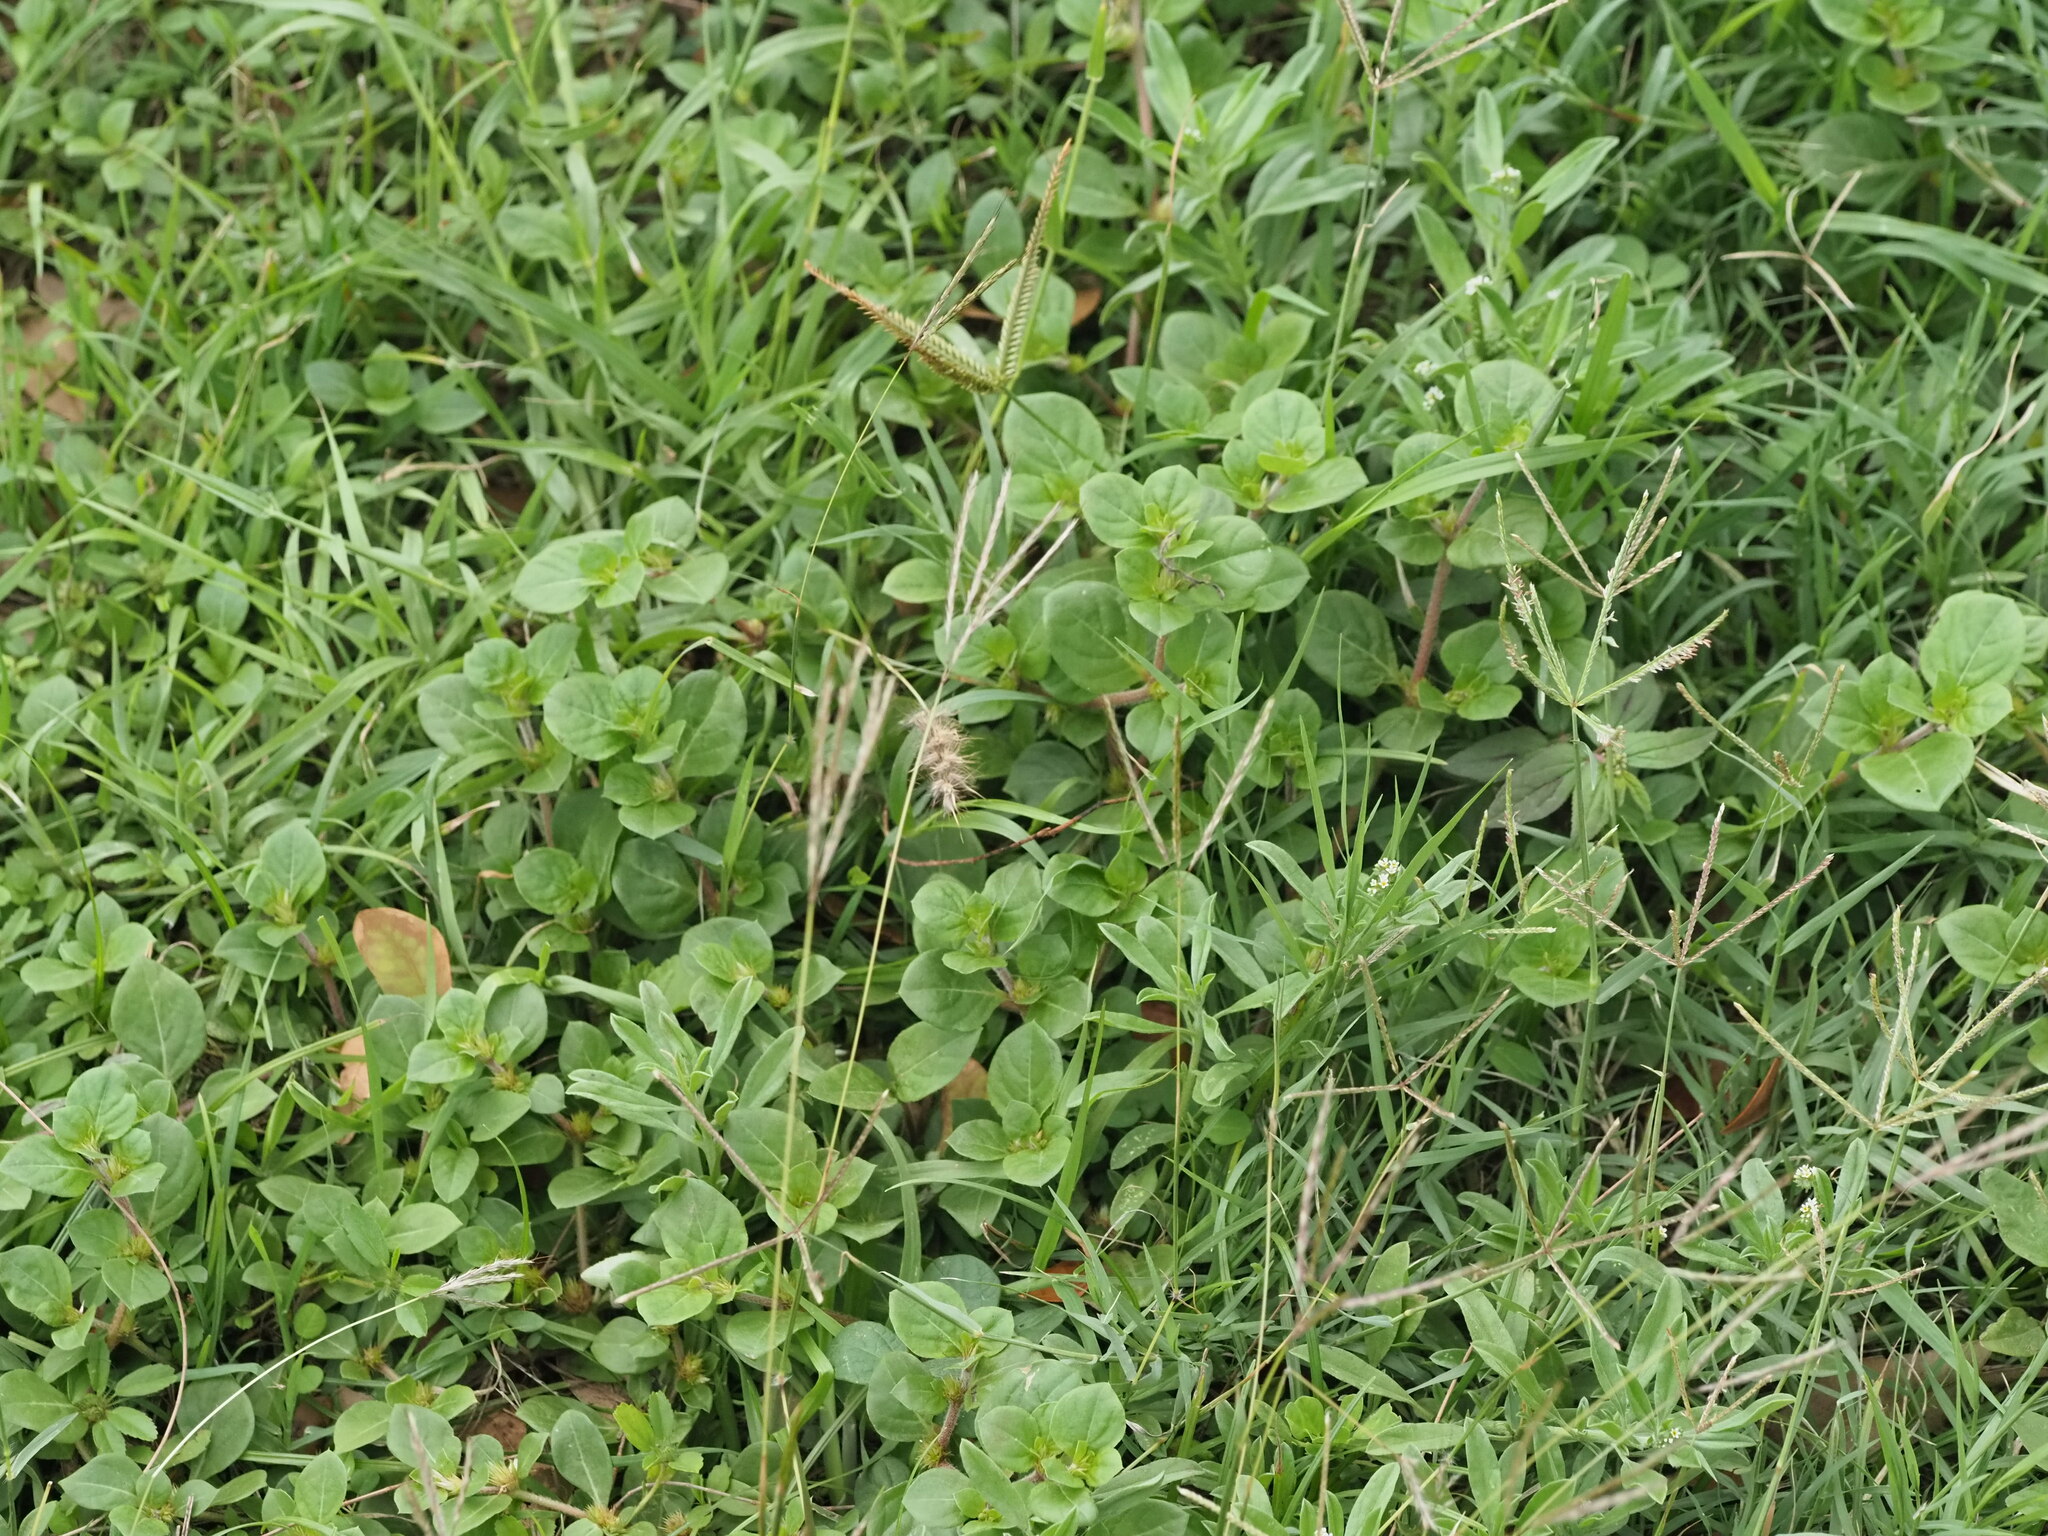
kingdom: Plantae
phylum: Tracheophyta
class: Liliopsida
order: Poales
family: Poaceae
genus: Bothriochloa
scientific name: Bothriochloa pertusa
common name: Pitted beardgrass
